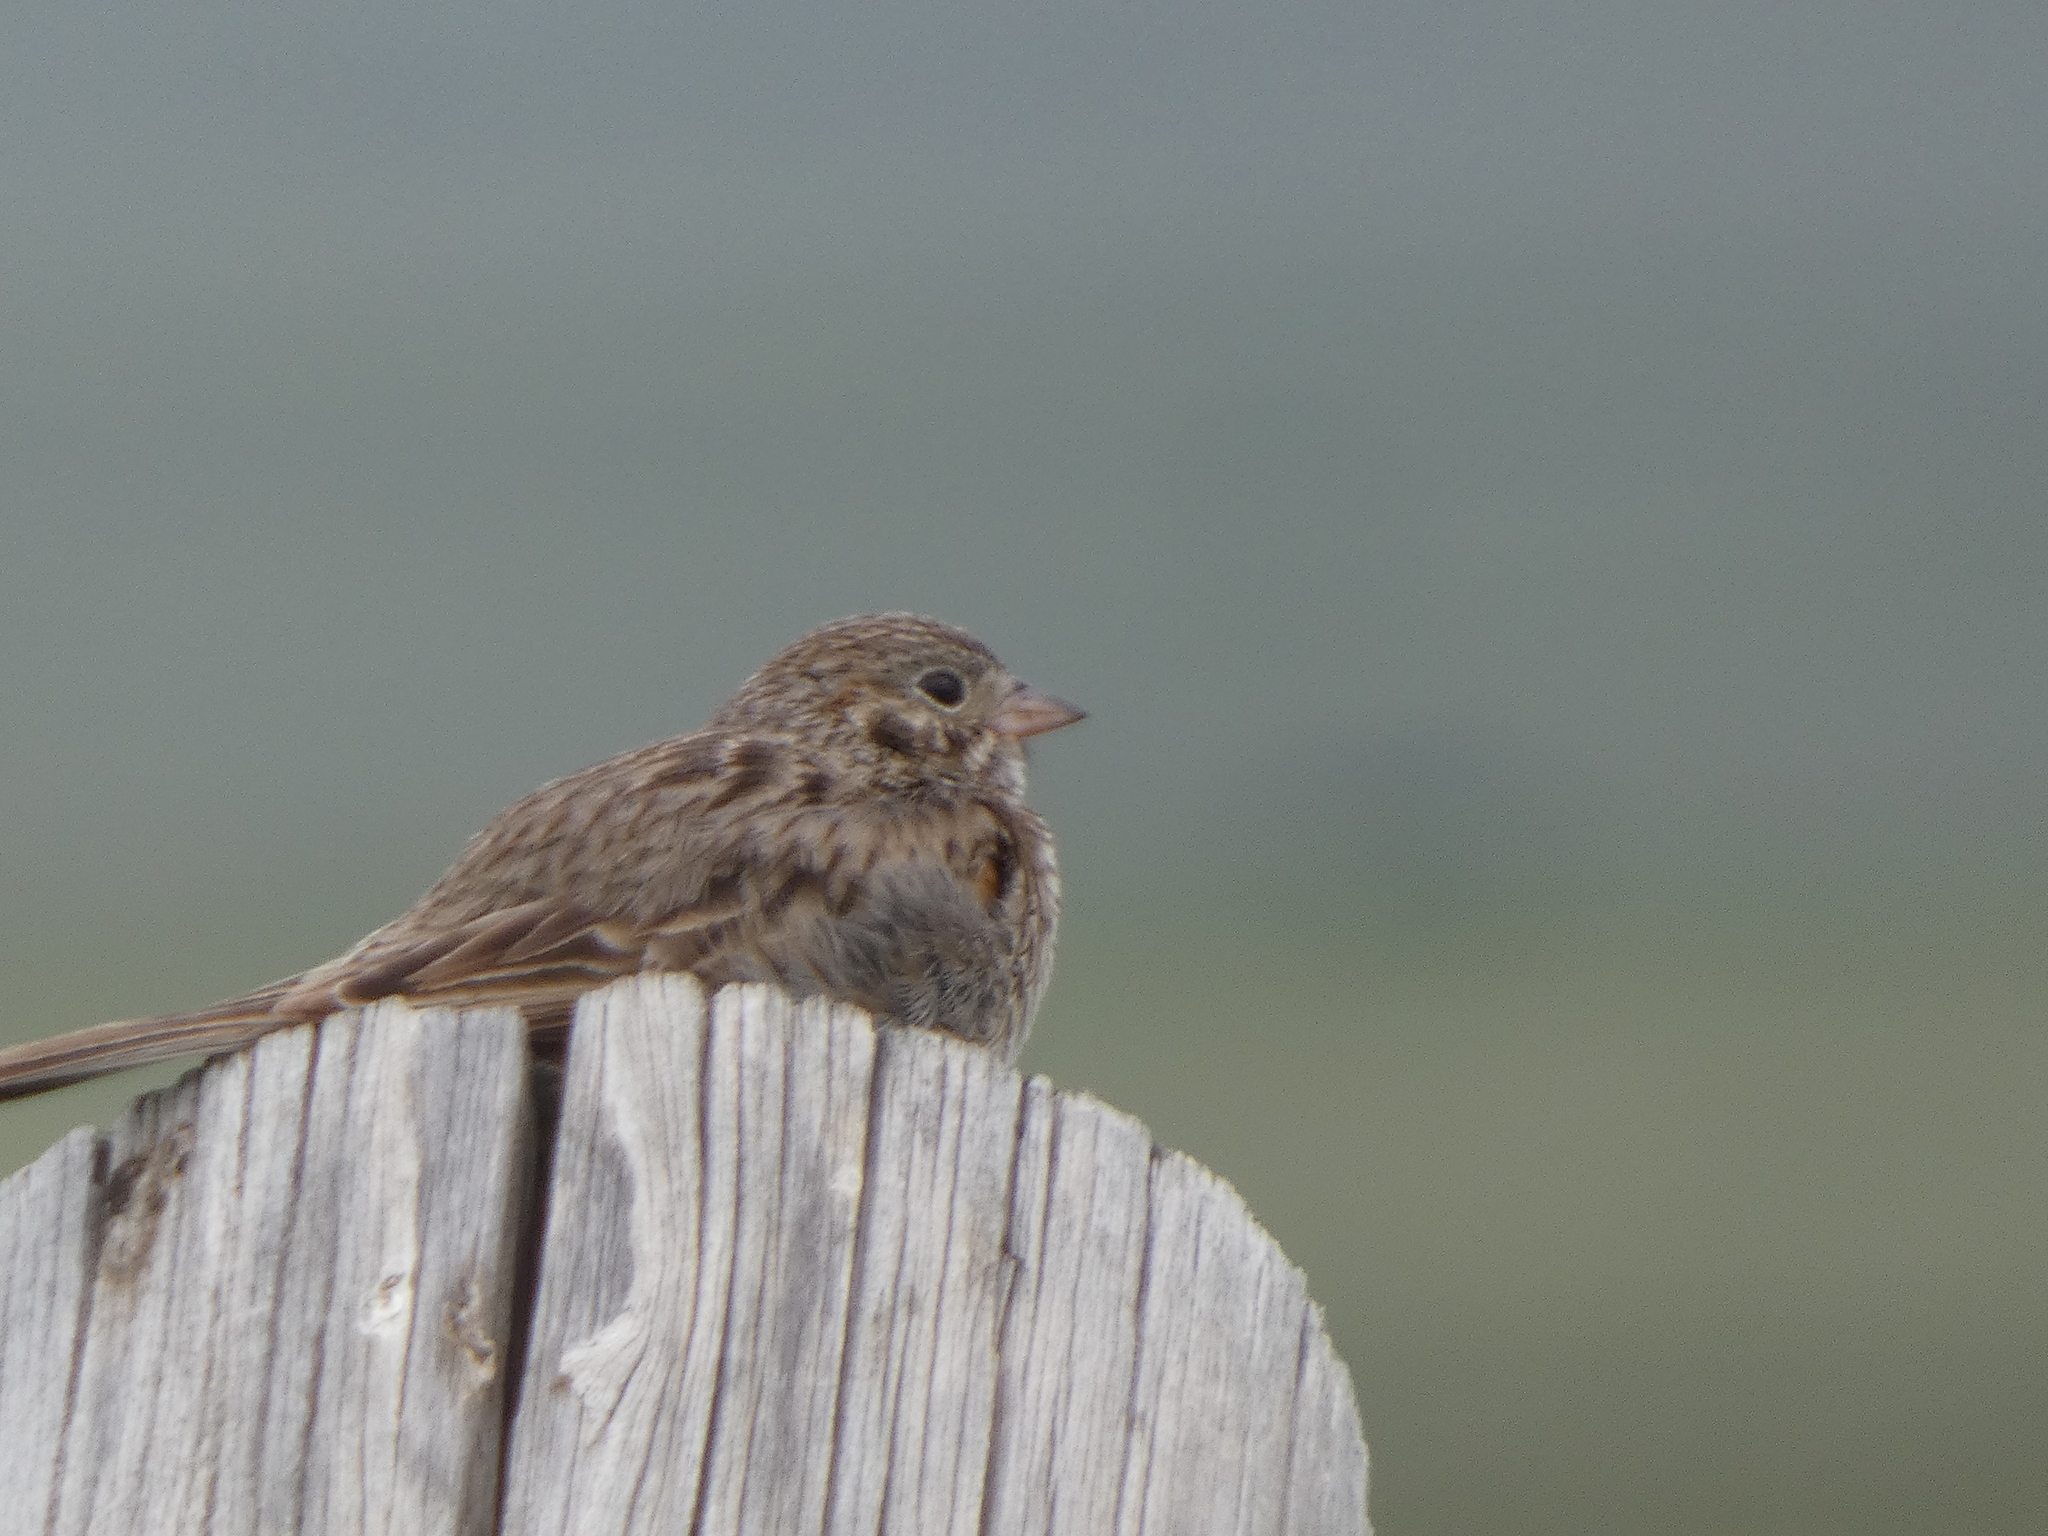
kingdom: Animalia
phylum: Chordata
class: Aves
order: Passeriformes
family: Passerellidae
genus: Pooecetes
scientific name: Pooecetes gramineus
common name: Vesper sparrow
